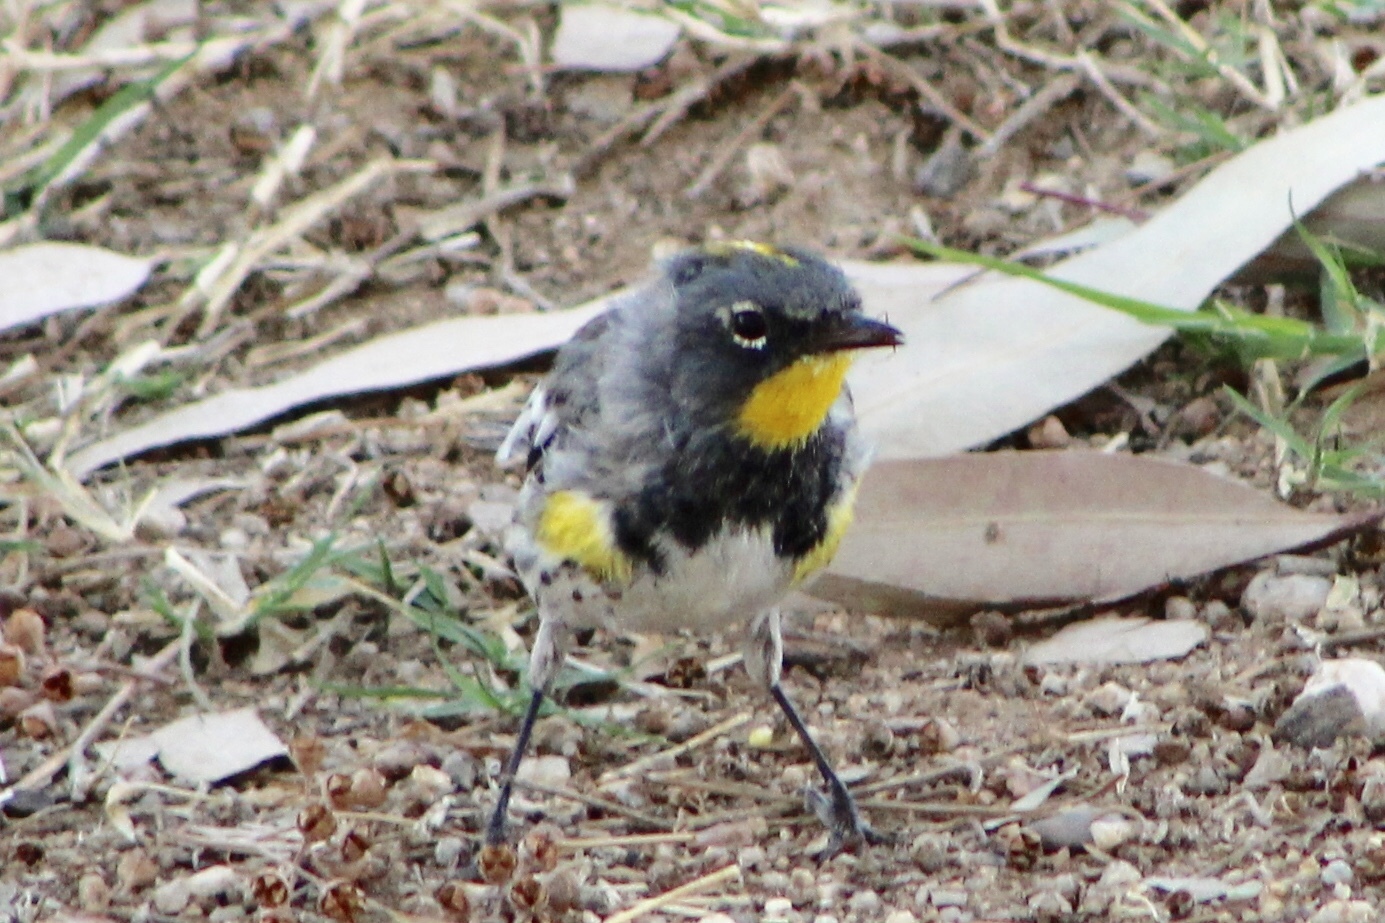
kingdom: Animalia
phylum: Chordata
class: Aves
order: Passeriformes
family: Parulidae
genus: Setophaga
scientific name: Setophaga auduboni
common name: Audubon's warbler
